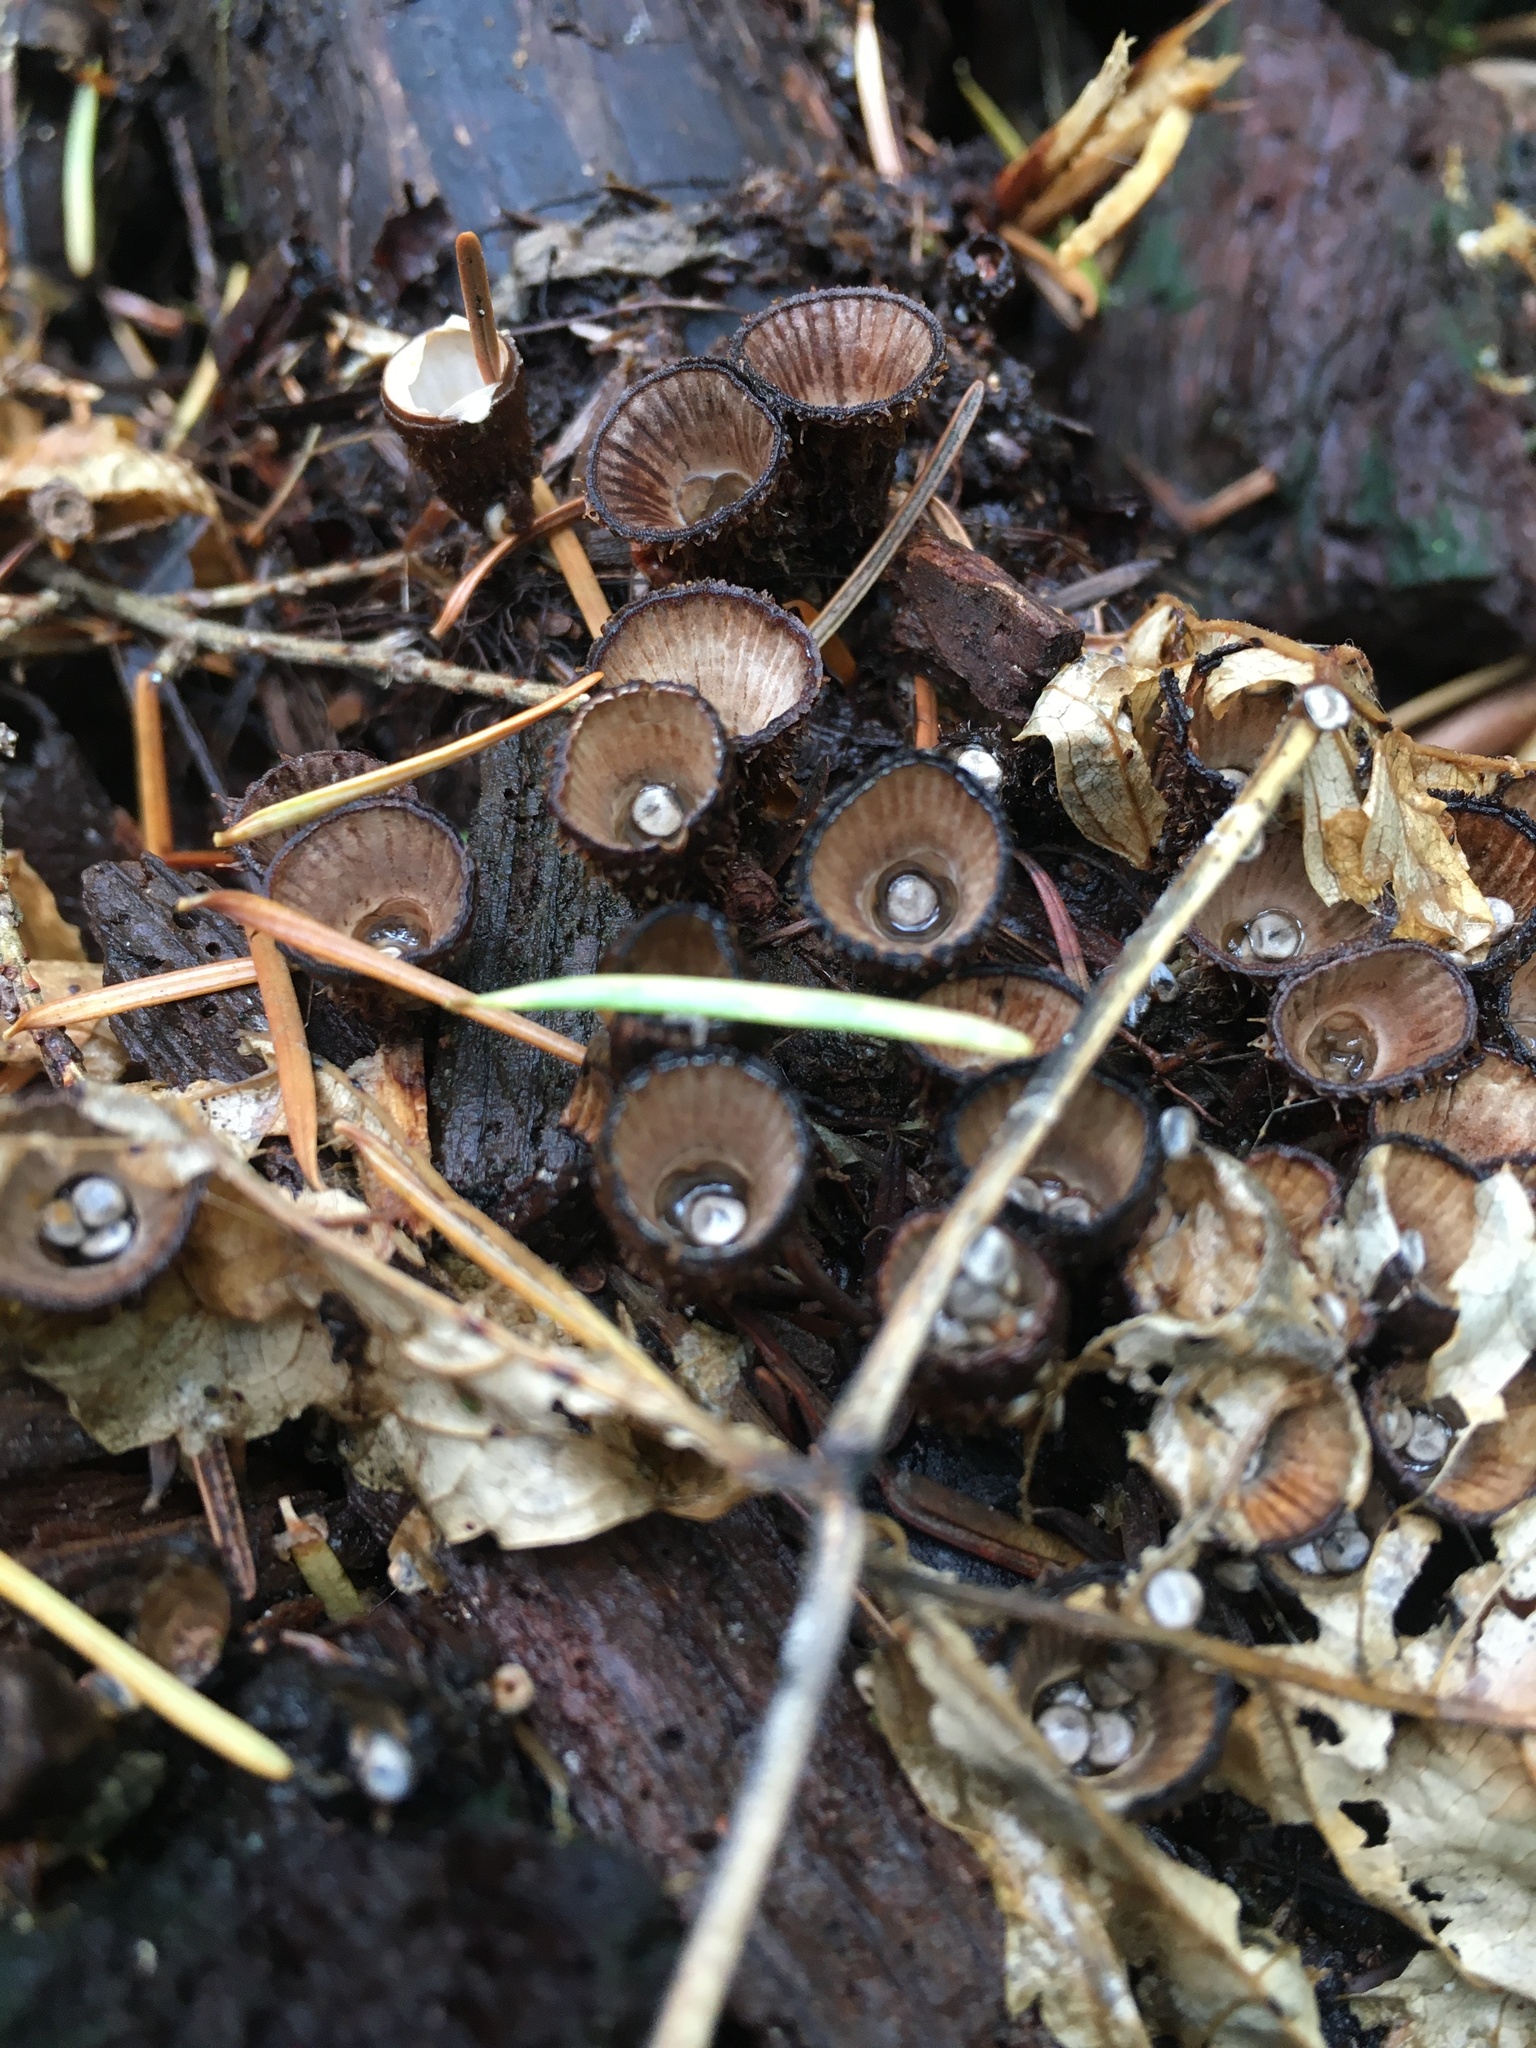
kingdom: Fungi
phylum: Basidiomycota
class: Agaricomycetes
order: Agaricales
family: Agaricaceae
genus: Cyathus
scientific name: Cyathus striatus
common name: Fluted bird's nest
